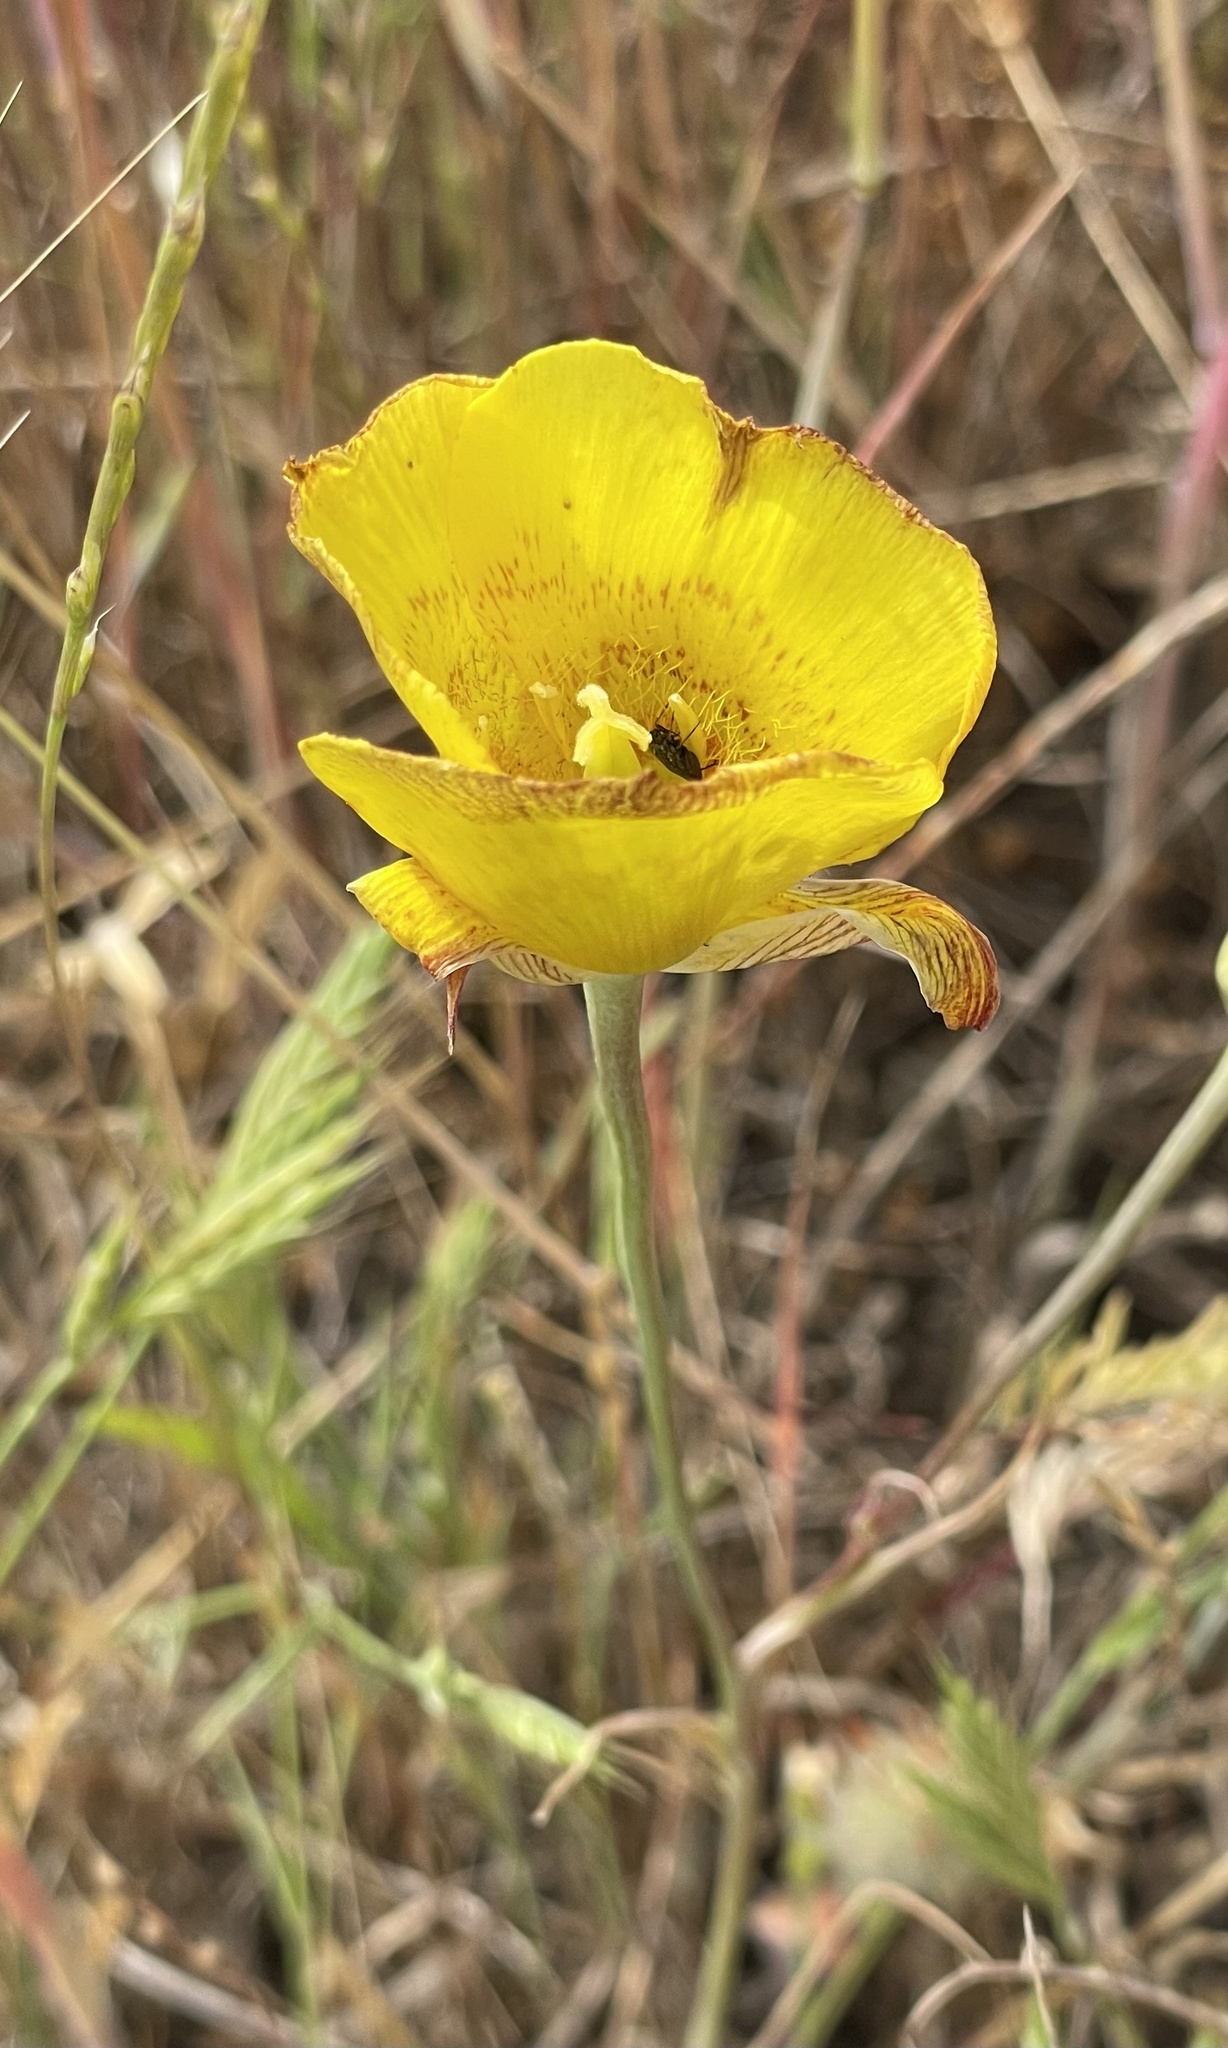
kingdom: Plantae
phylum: Tracheophyta
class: Liliopsida
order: Liliales
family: Liliaceae
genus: Calochortus
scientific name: Calochortus luteus
